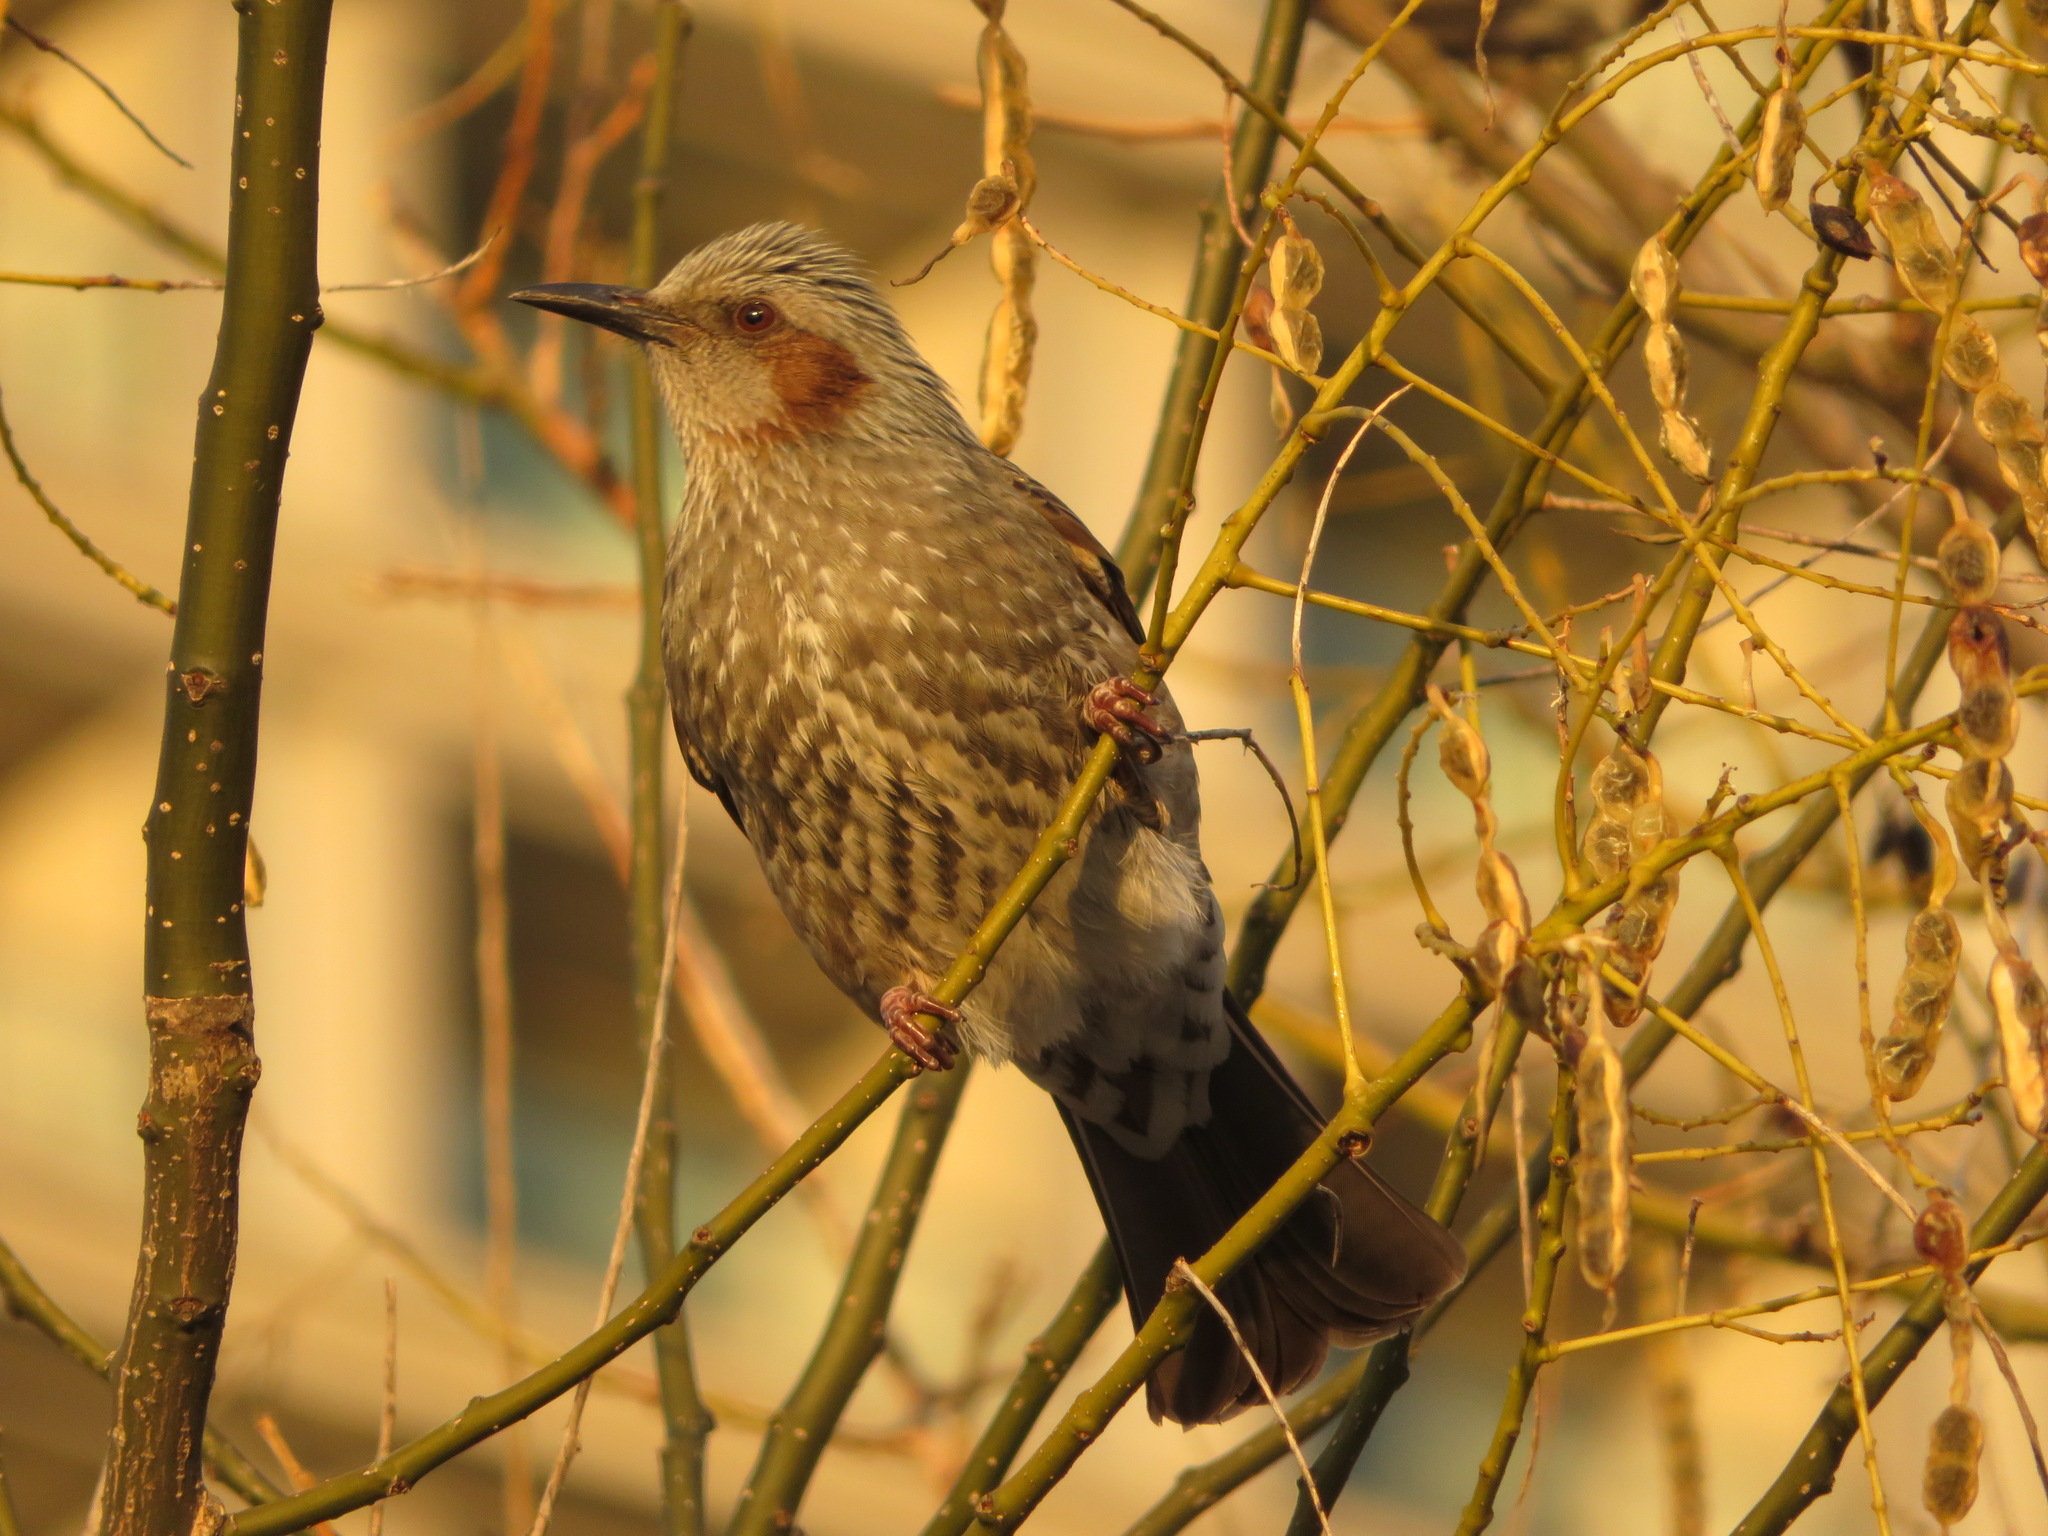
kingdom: Animalia
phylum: Chordata
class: Aves
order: Passeriformes
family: Pycnonotidae
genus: Hypsipetes
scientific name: Hypsipetes amaurotis
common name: Brown-eared bulbul
